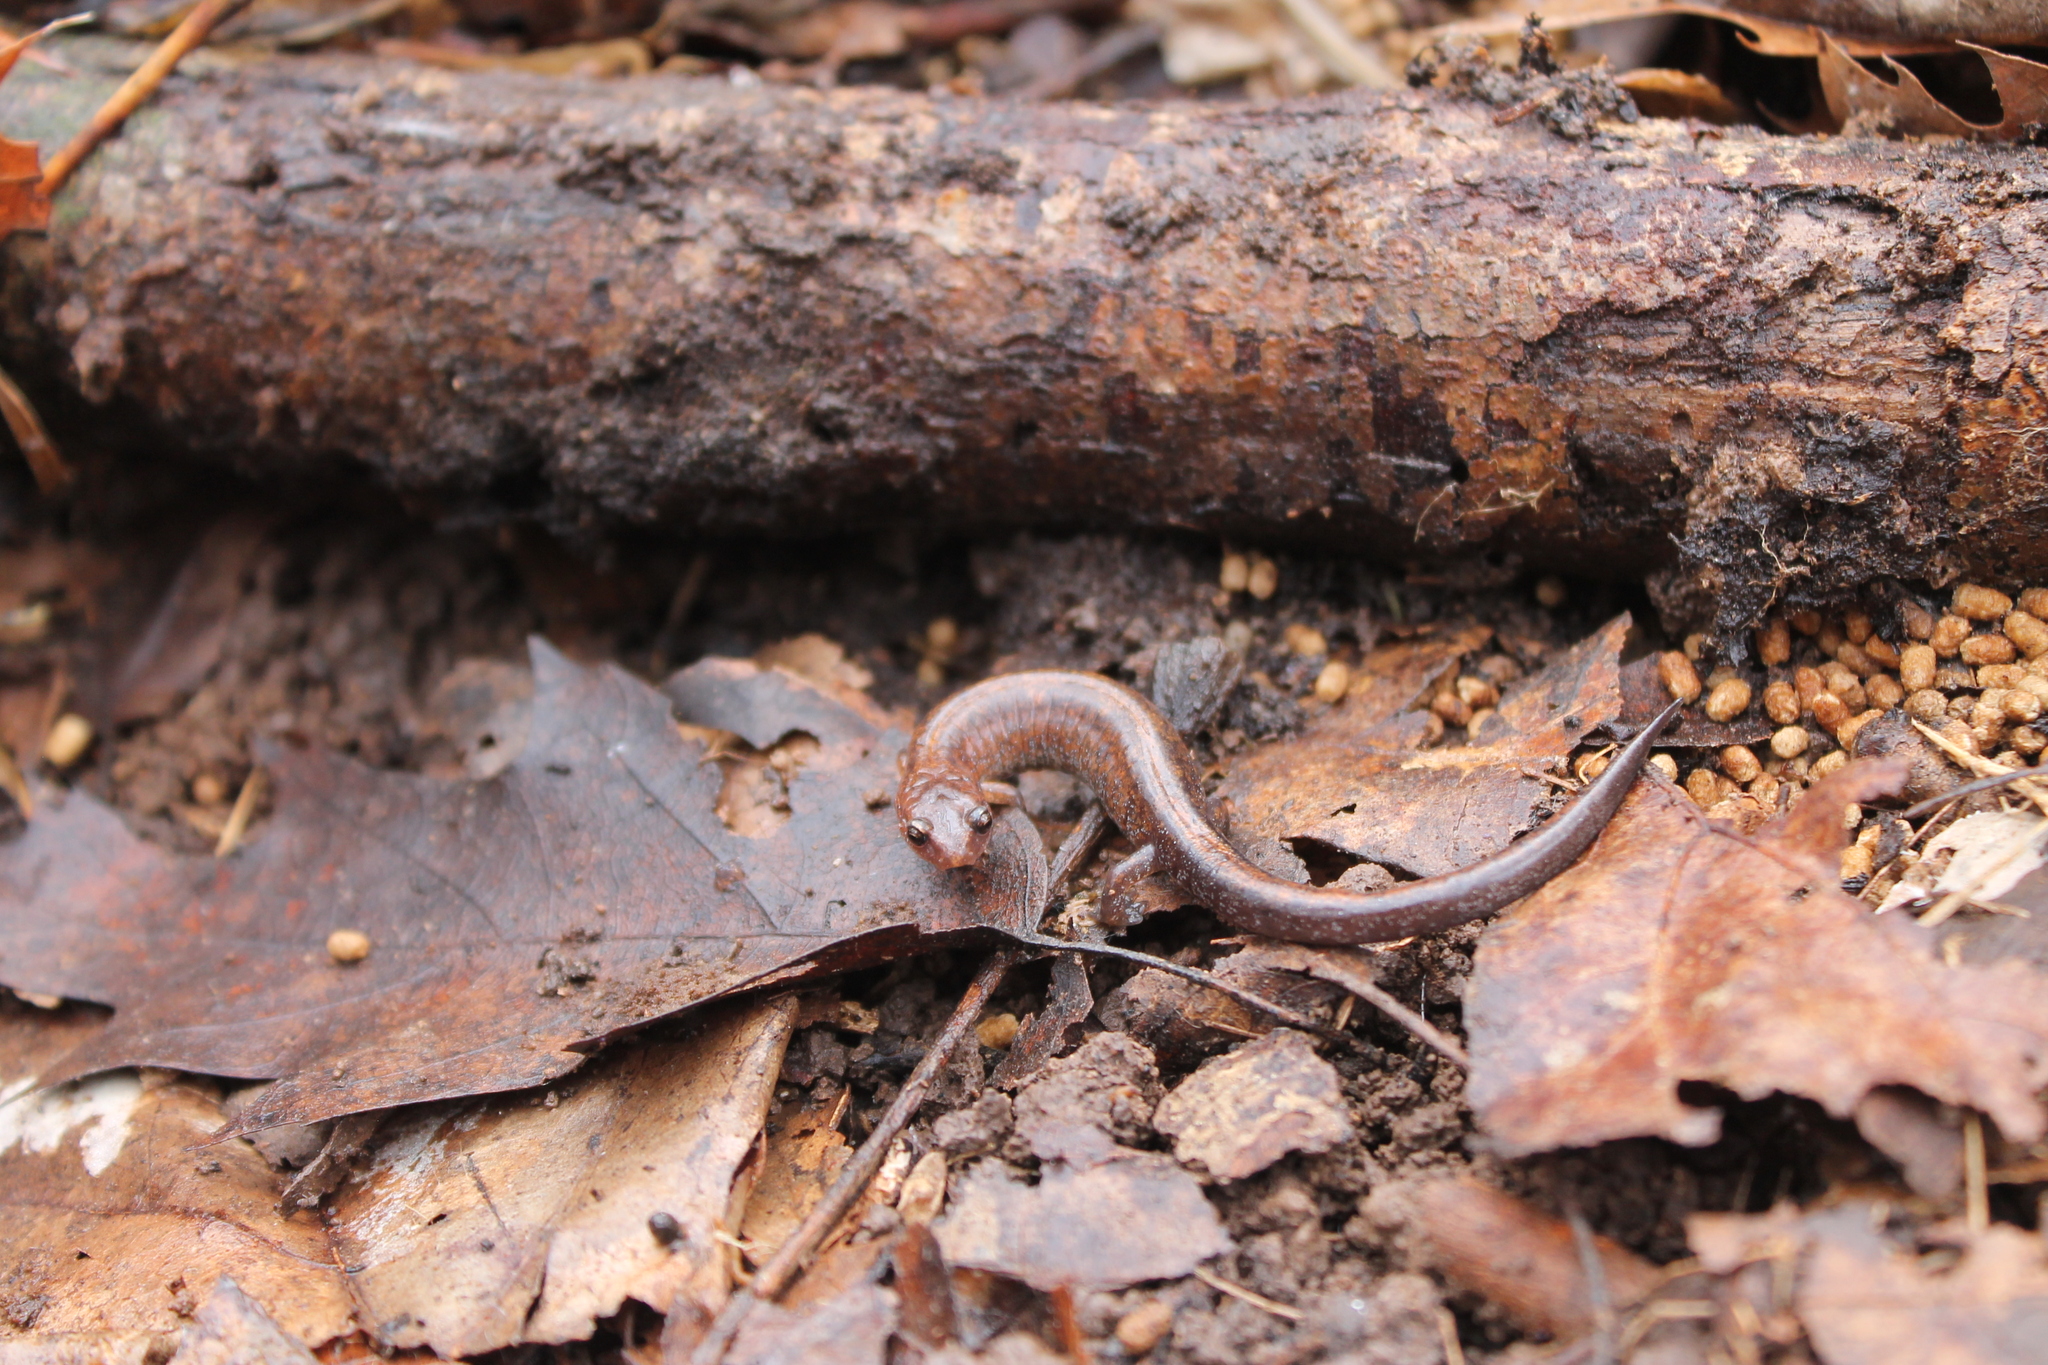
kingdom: Animalia
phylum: Chordata
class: Amphibia
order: Caudata
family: Plethodontidae
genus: Plethodon
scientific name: Plethodon dorsalis
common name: Northern zigzag salamander
